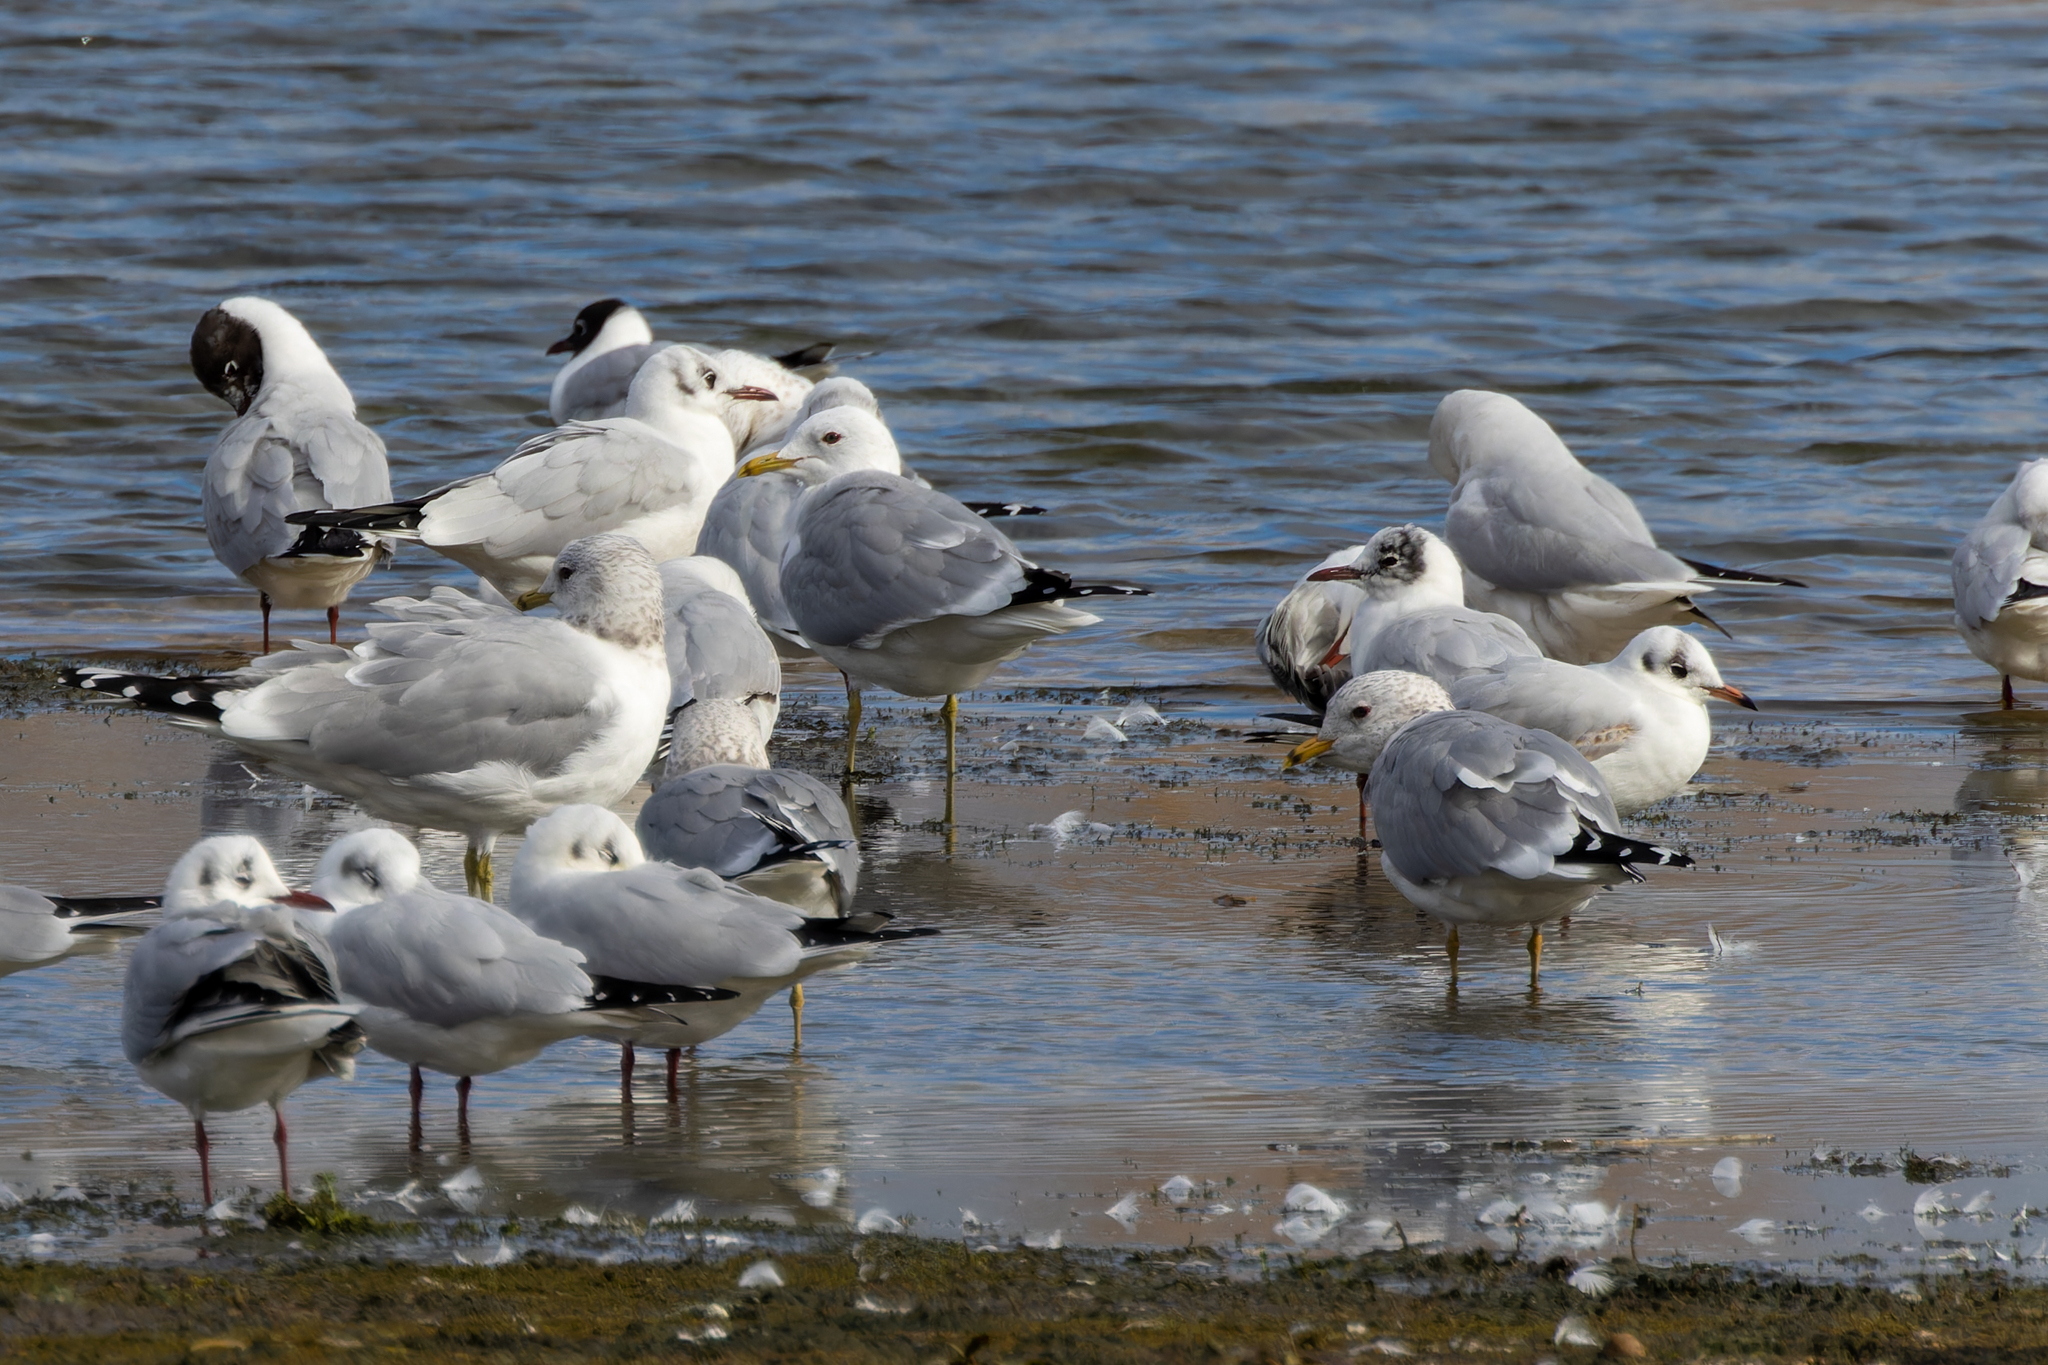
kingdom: Animalia
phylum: Chordata
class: Aves
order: Charadriiformes
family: Laridae
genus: Larus
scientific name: Larus canus
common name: Mew gull
